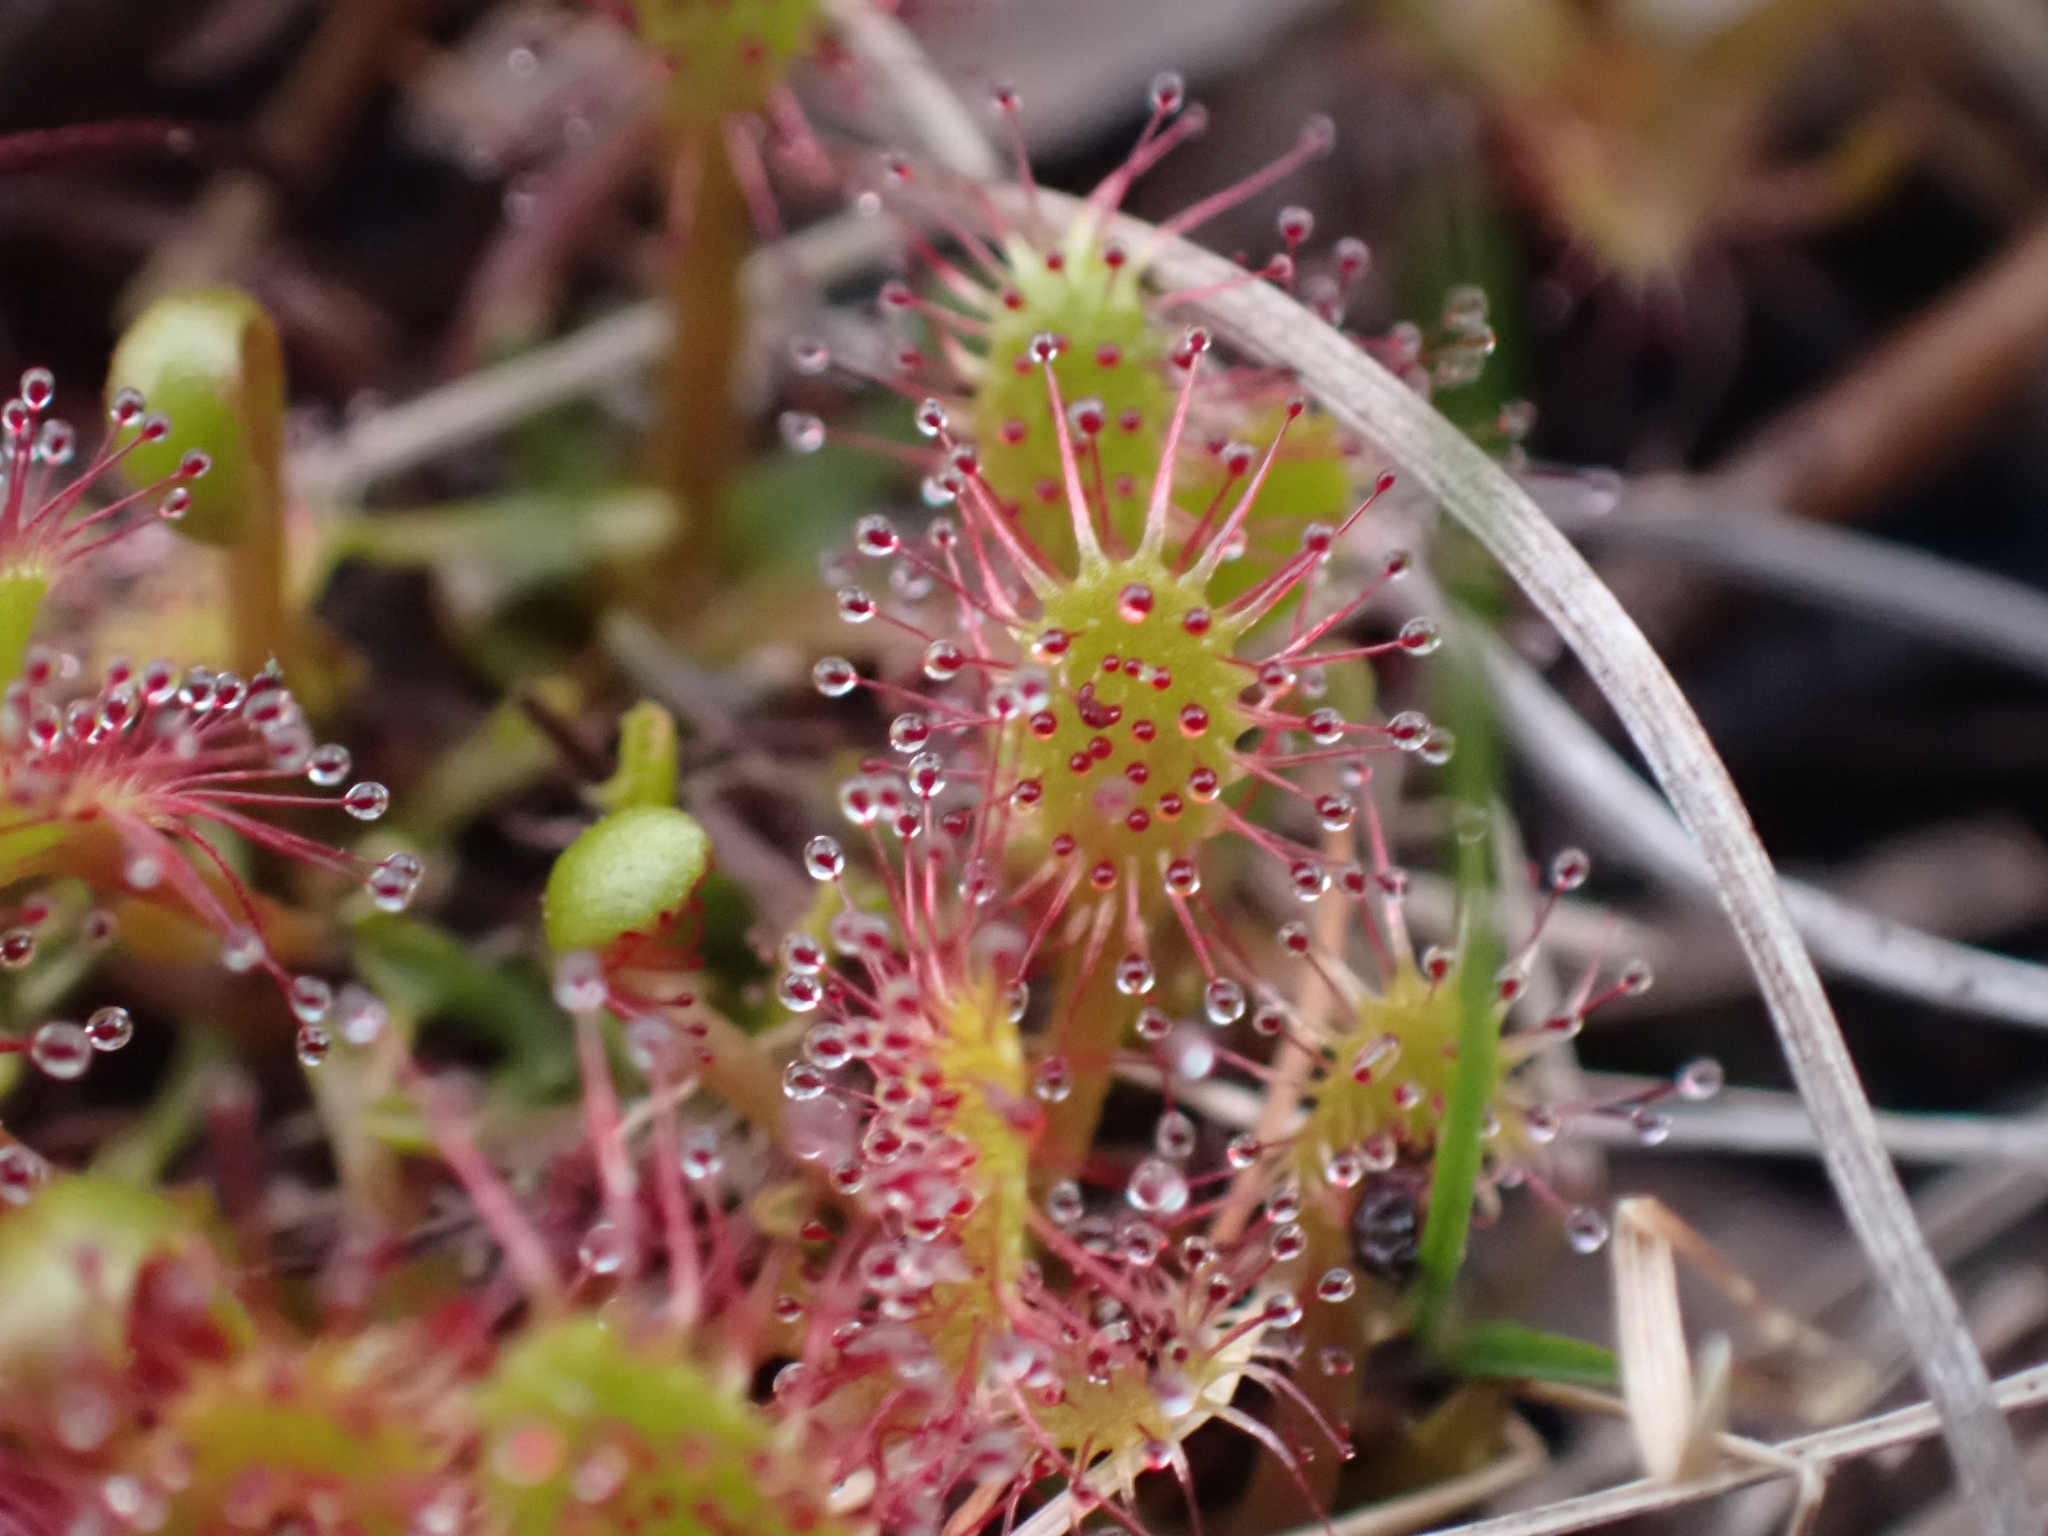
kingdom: Plantae
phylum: Tracheophyta
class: Magnoliopsida
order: Caryophyllales
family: Droseraceae
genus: Drosera
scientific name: Drosera anglica
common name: Great sundew
